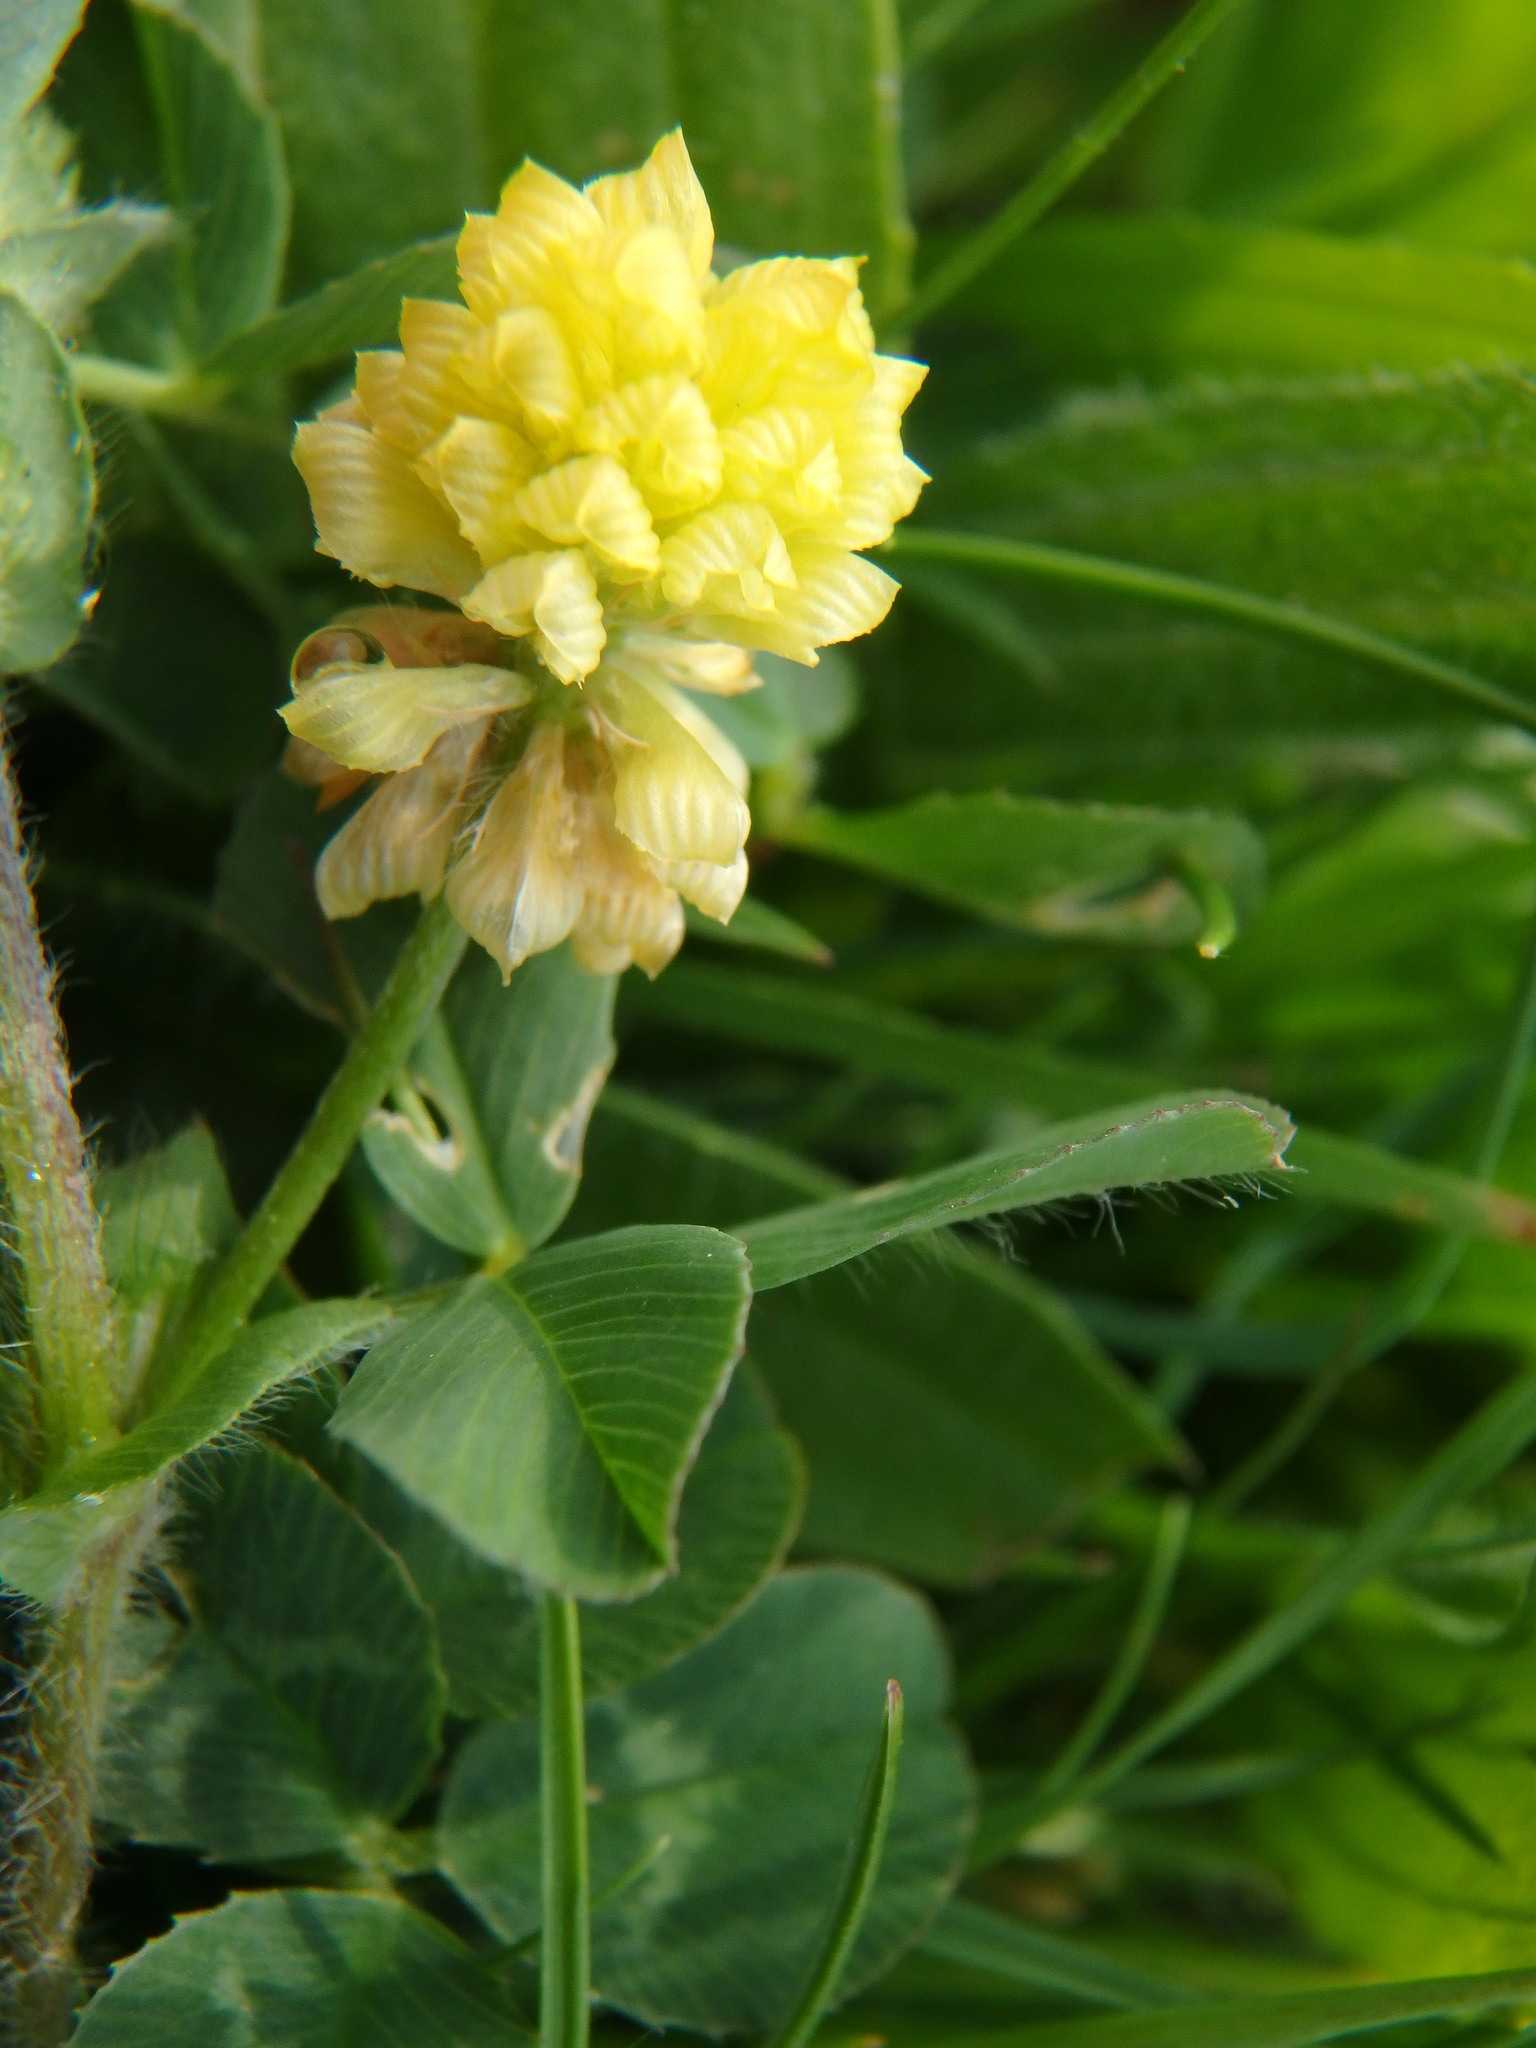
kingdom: Plantae
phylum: Tracheophyta
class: Magnoliopsida
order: Fabales
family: Fabaceae
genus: Trifolium
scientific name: Trifolium campestre
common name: Field clover
